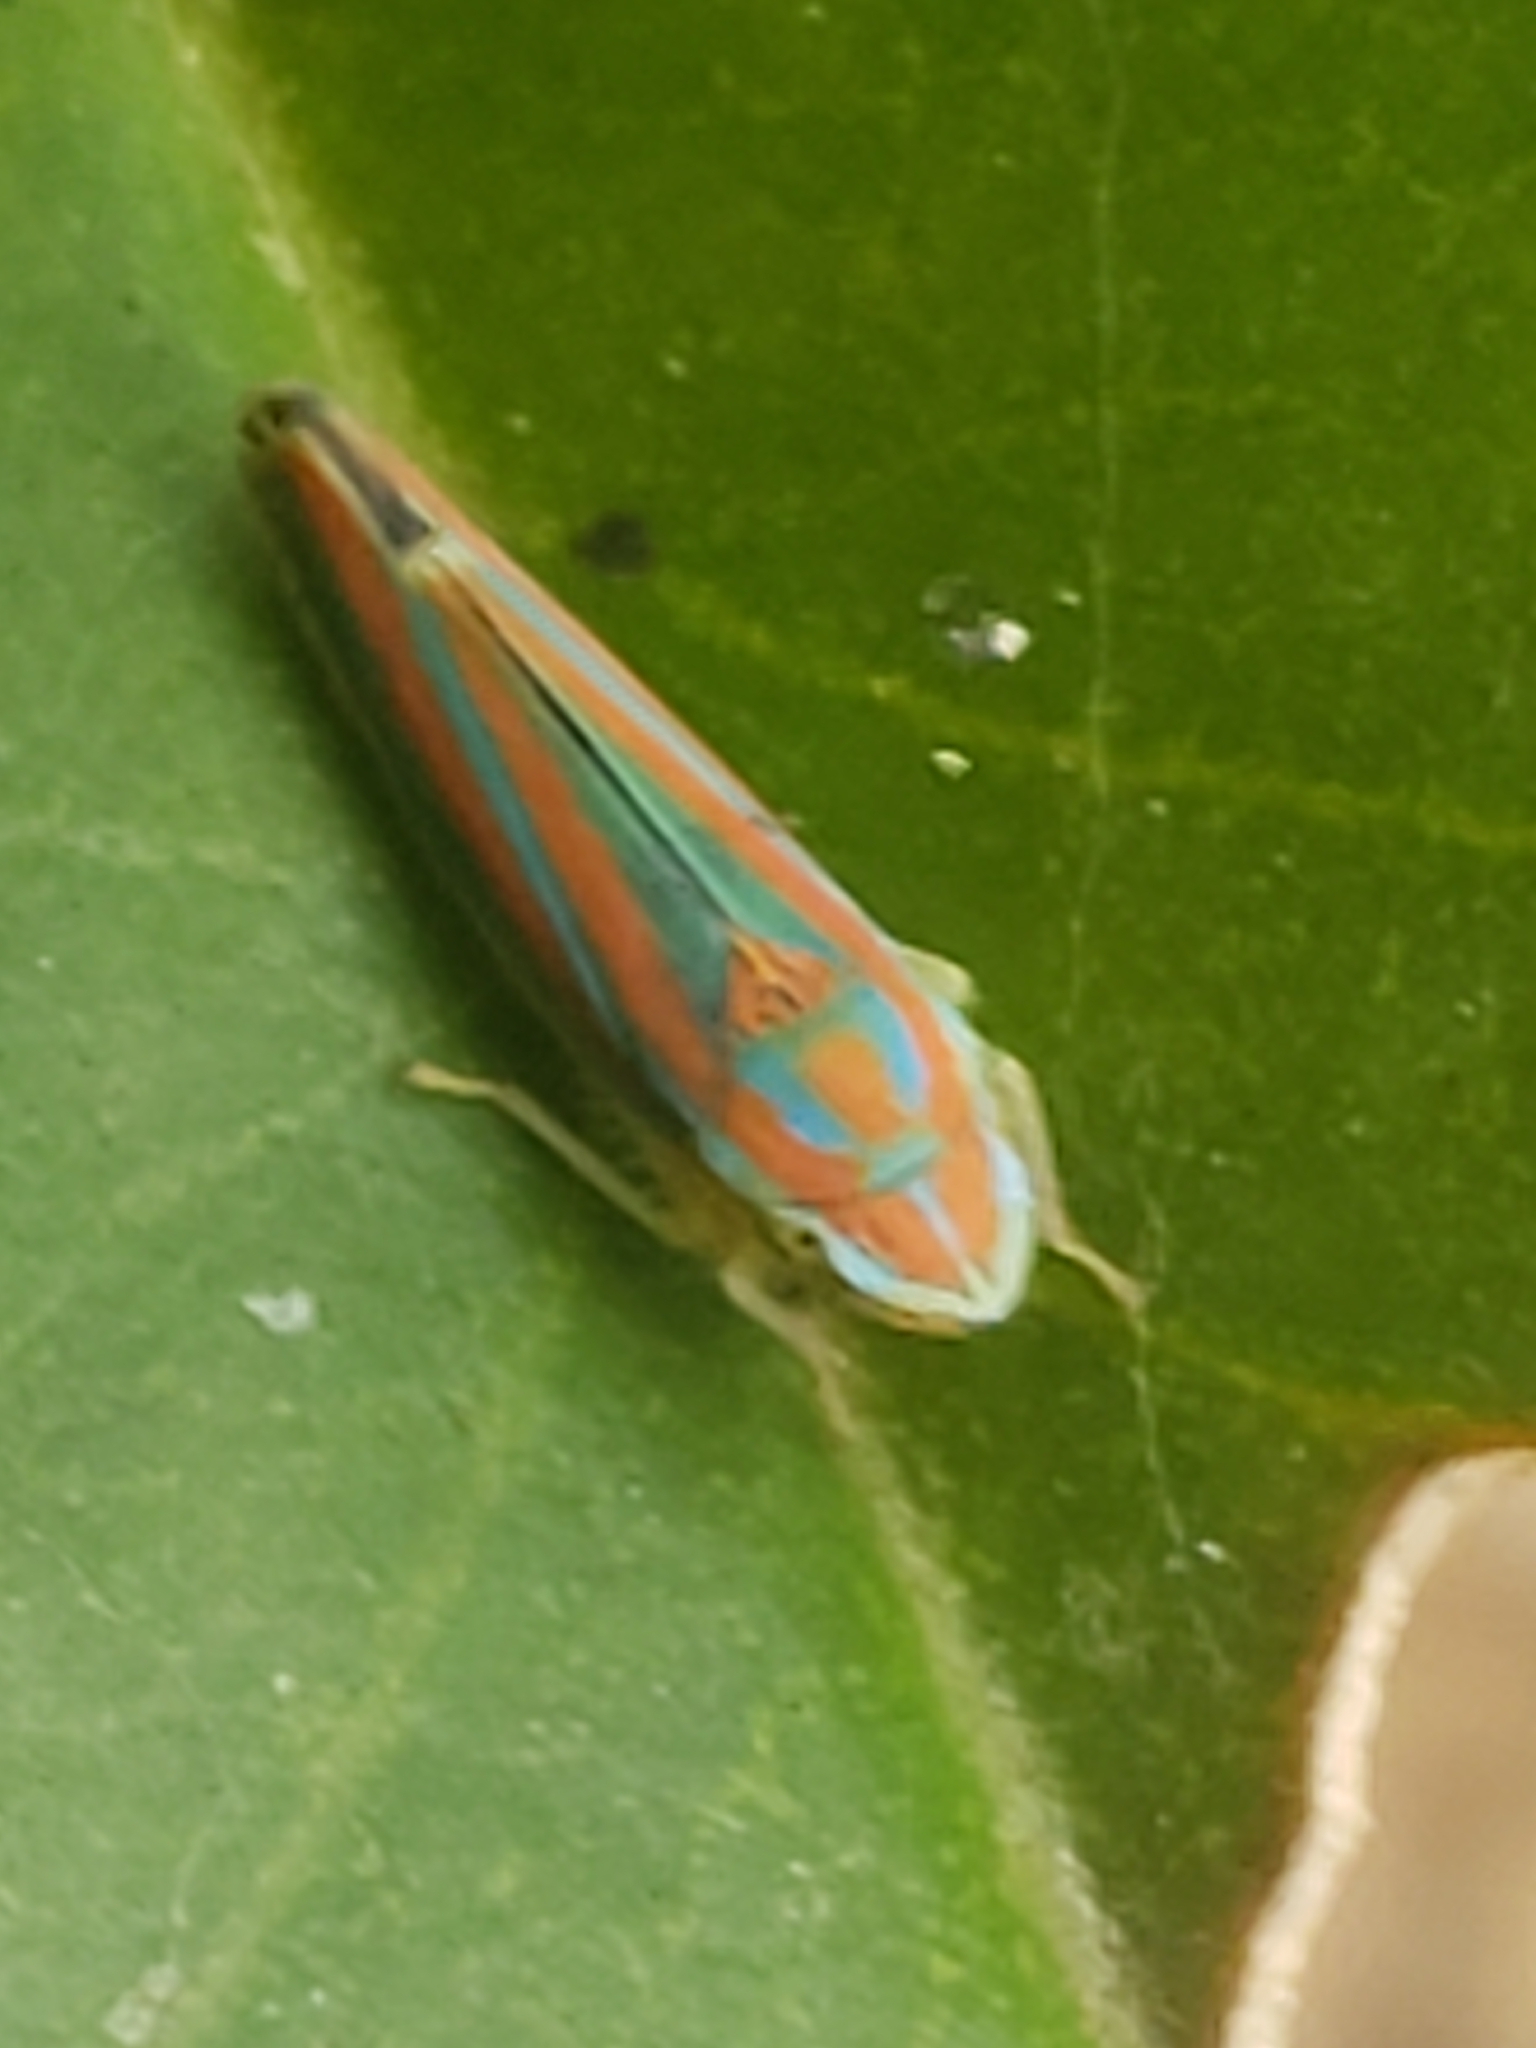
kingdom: Animalia
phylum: Arthropoda
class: Insecta
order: Hemiptera
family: Cicadellidae
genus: Graphocephala
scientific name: Graphocephala versuta
